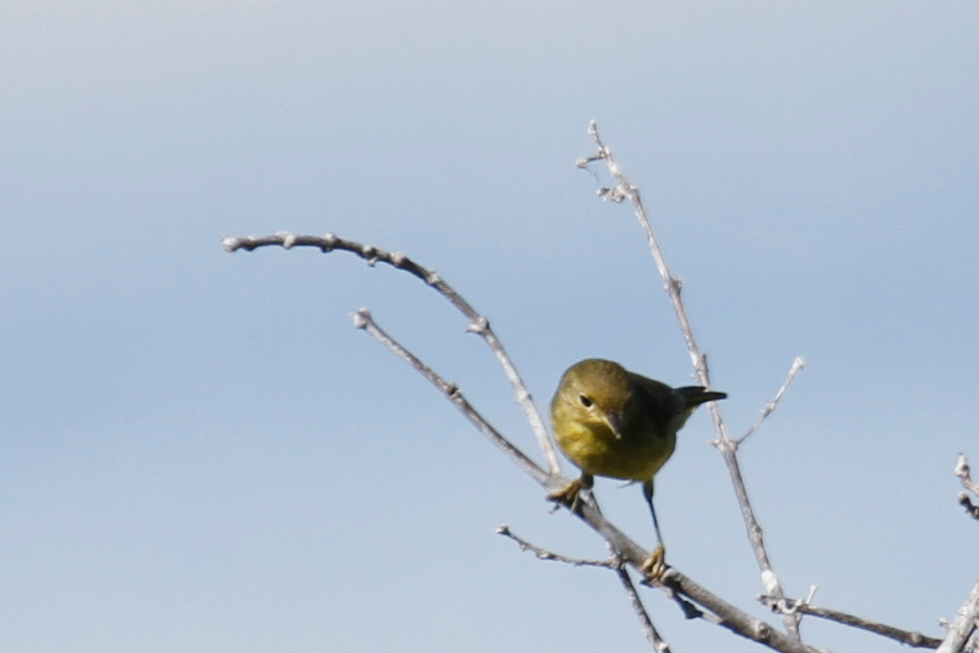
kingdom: Animalia
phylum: Chordata
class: Aves
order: Passeriformes
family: Parulidae
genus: Leiothlypis
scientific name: Leiothlypis celata
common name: Orange-crowned warbler
